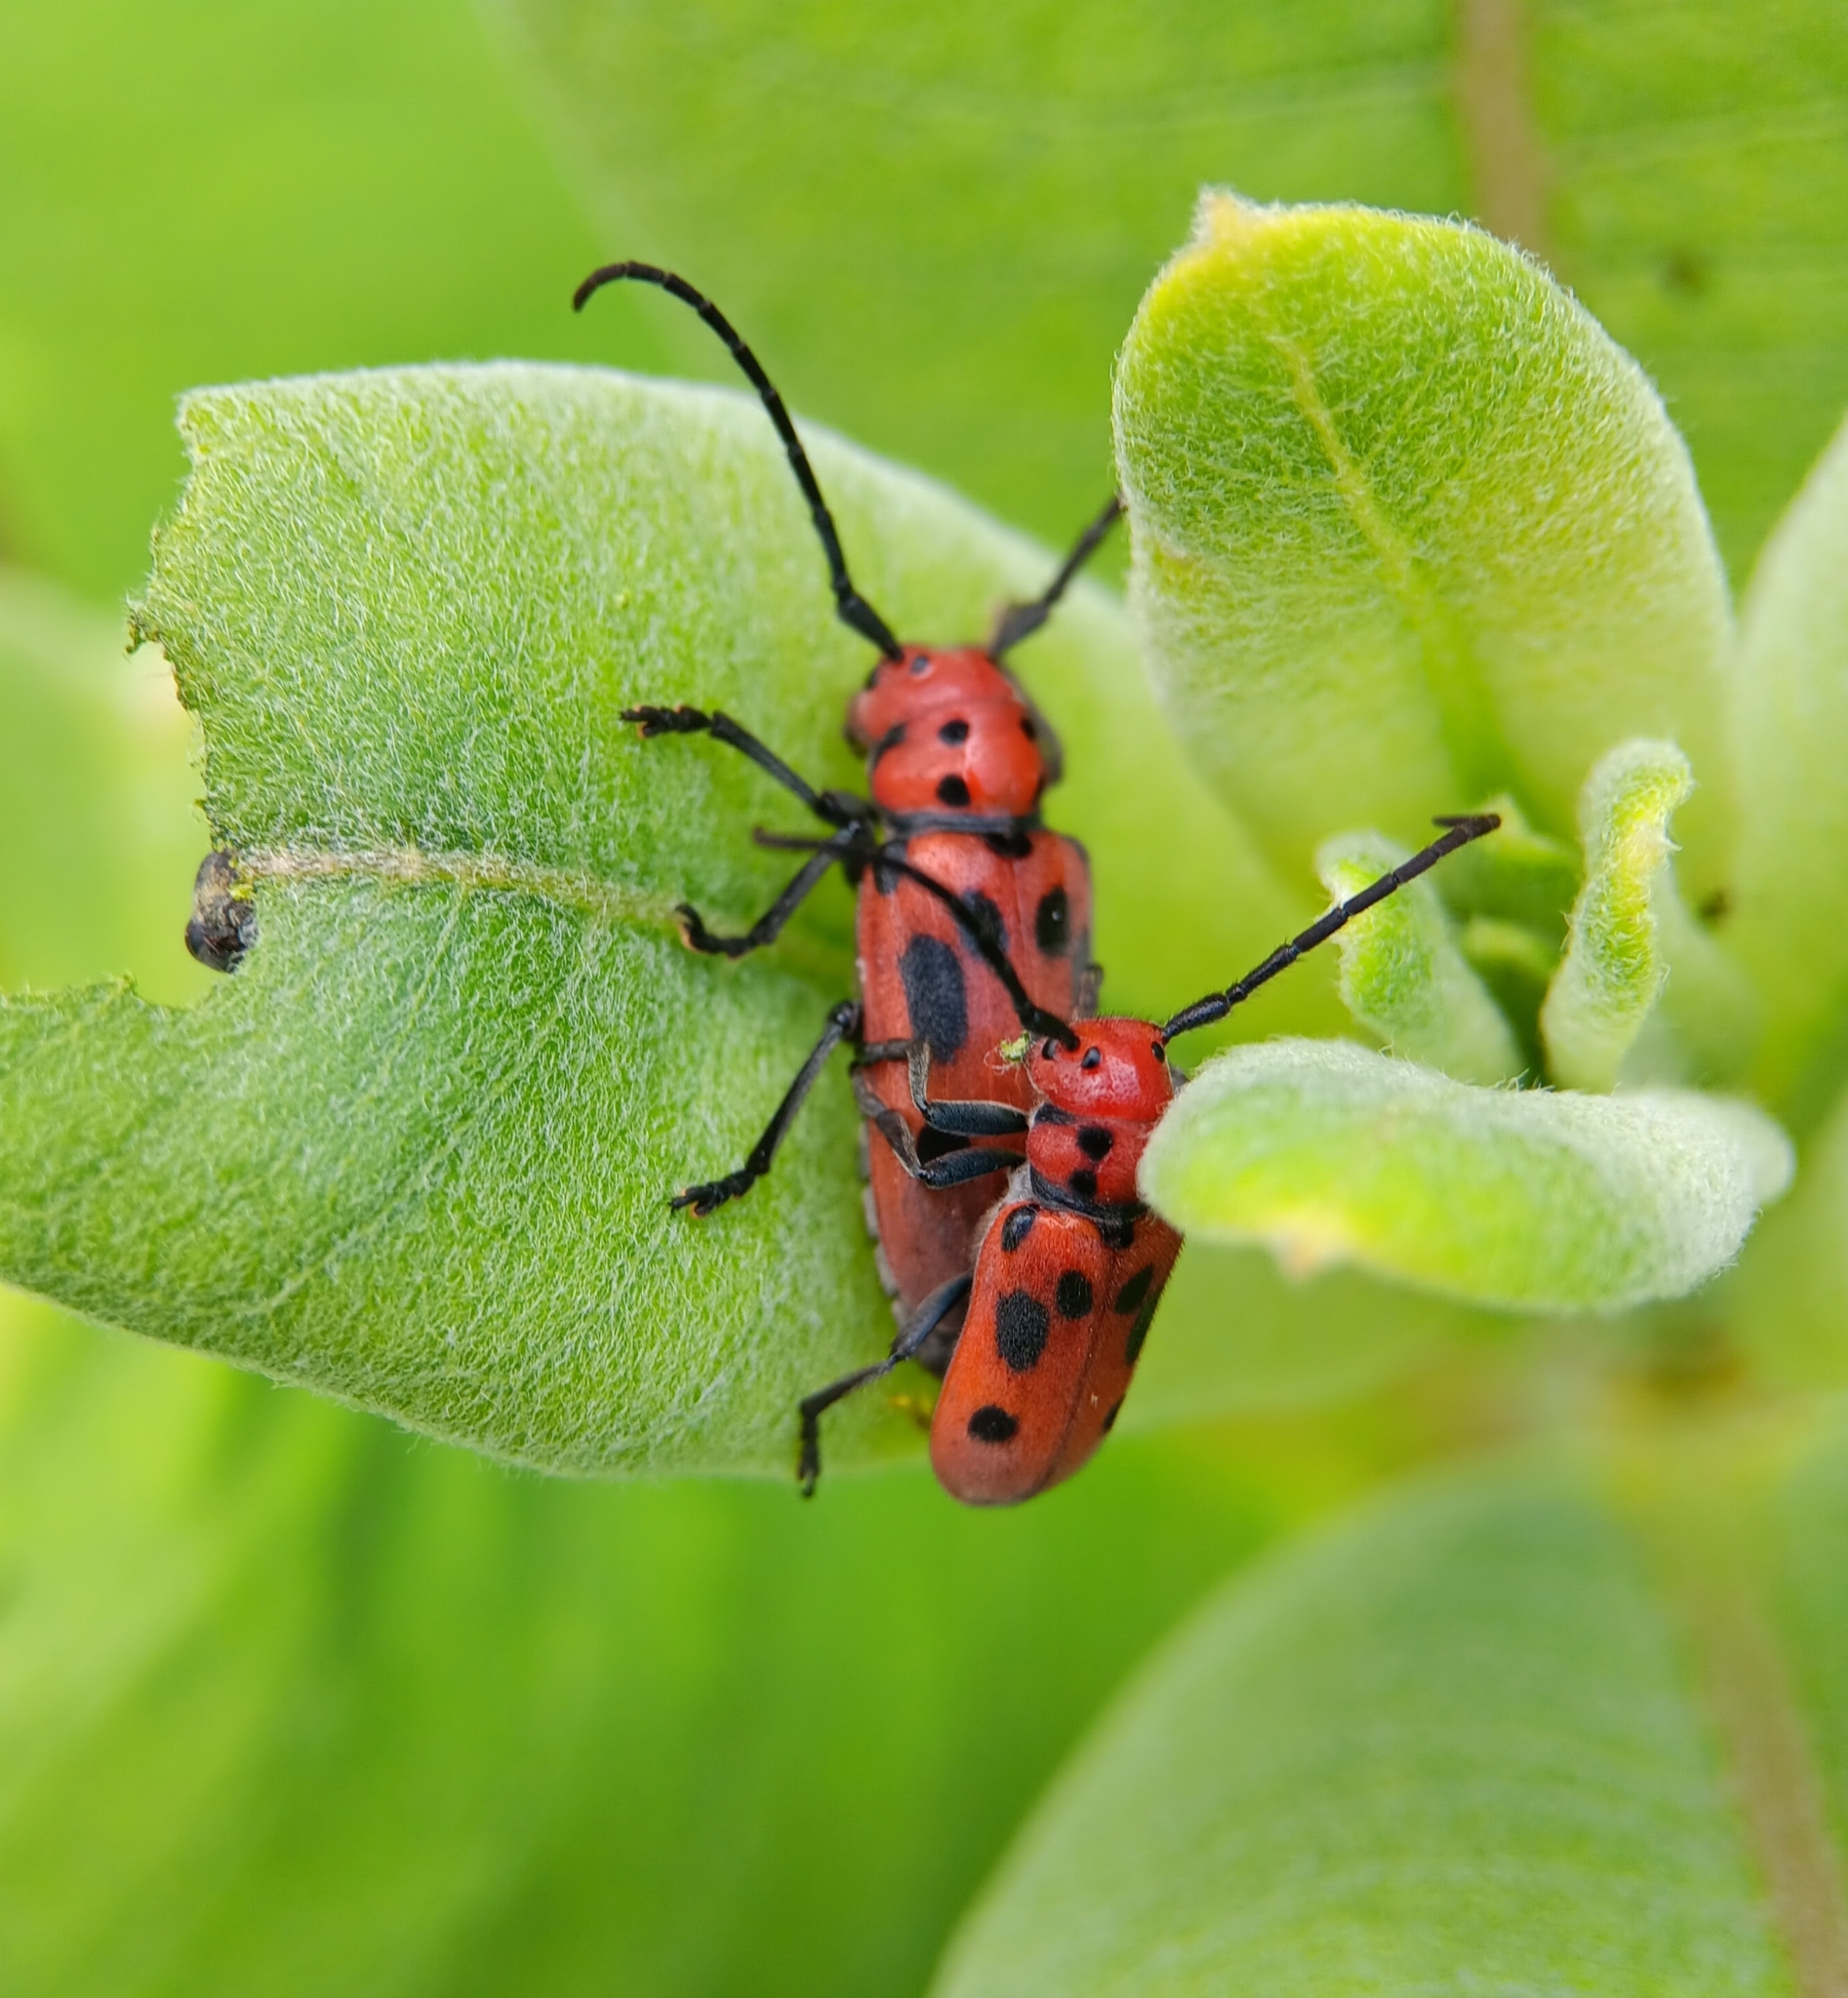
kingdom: Animalia
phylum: Arthropoda
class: Insecta
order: Coleoptera
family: Cerambycidae
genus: Tetraopes
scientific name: Tetraopes tetrophthalmus
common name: Red milkweed beetle
